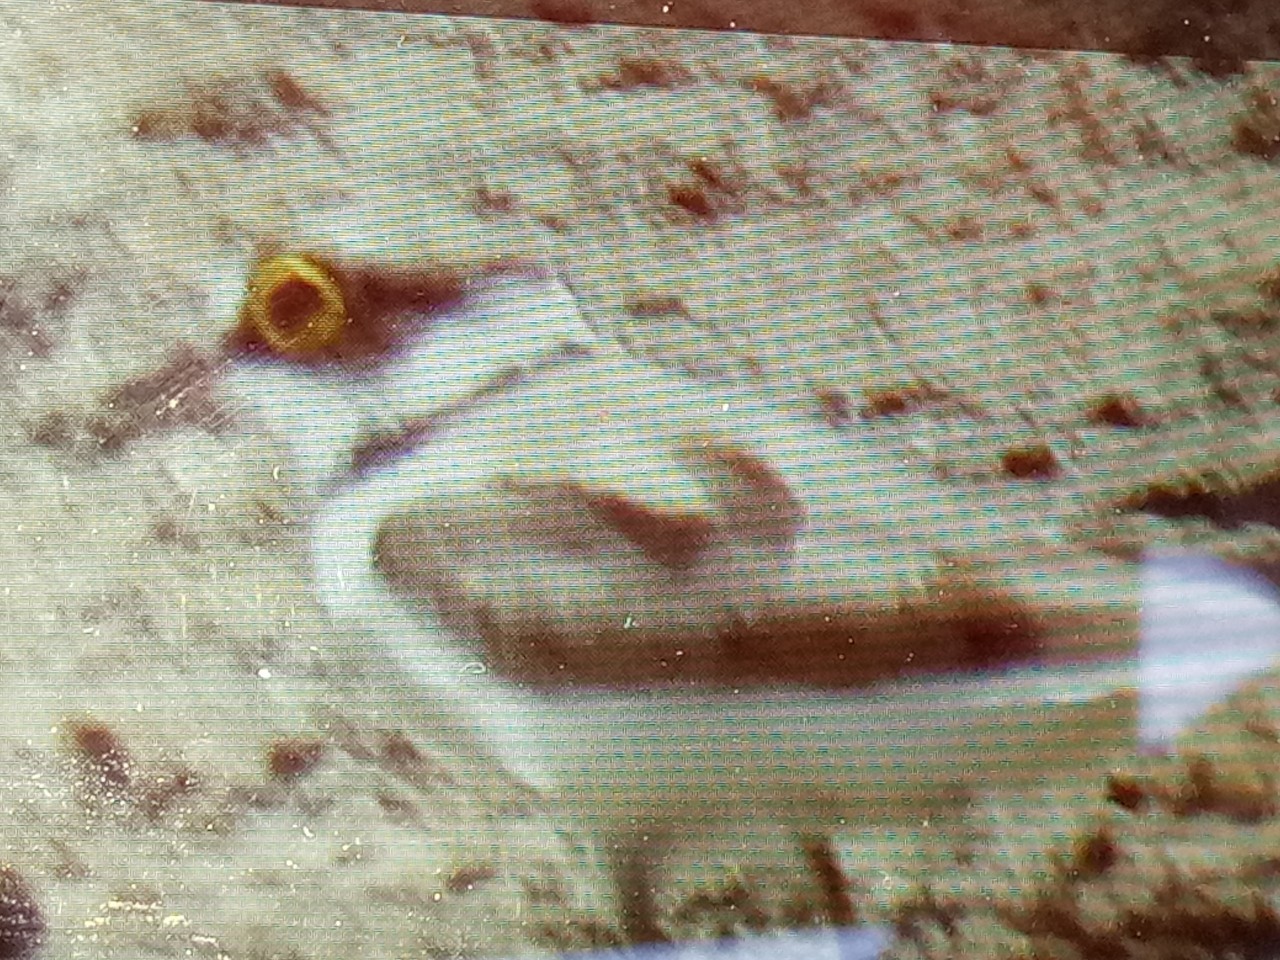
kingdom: Animalia
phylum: Chordata
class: Aves
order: Charadriiformes
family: Charadriidae
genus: Charadrius
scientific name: Charadrius dubius
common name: Little ringed plover
